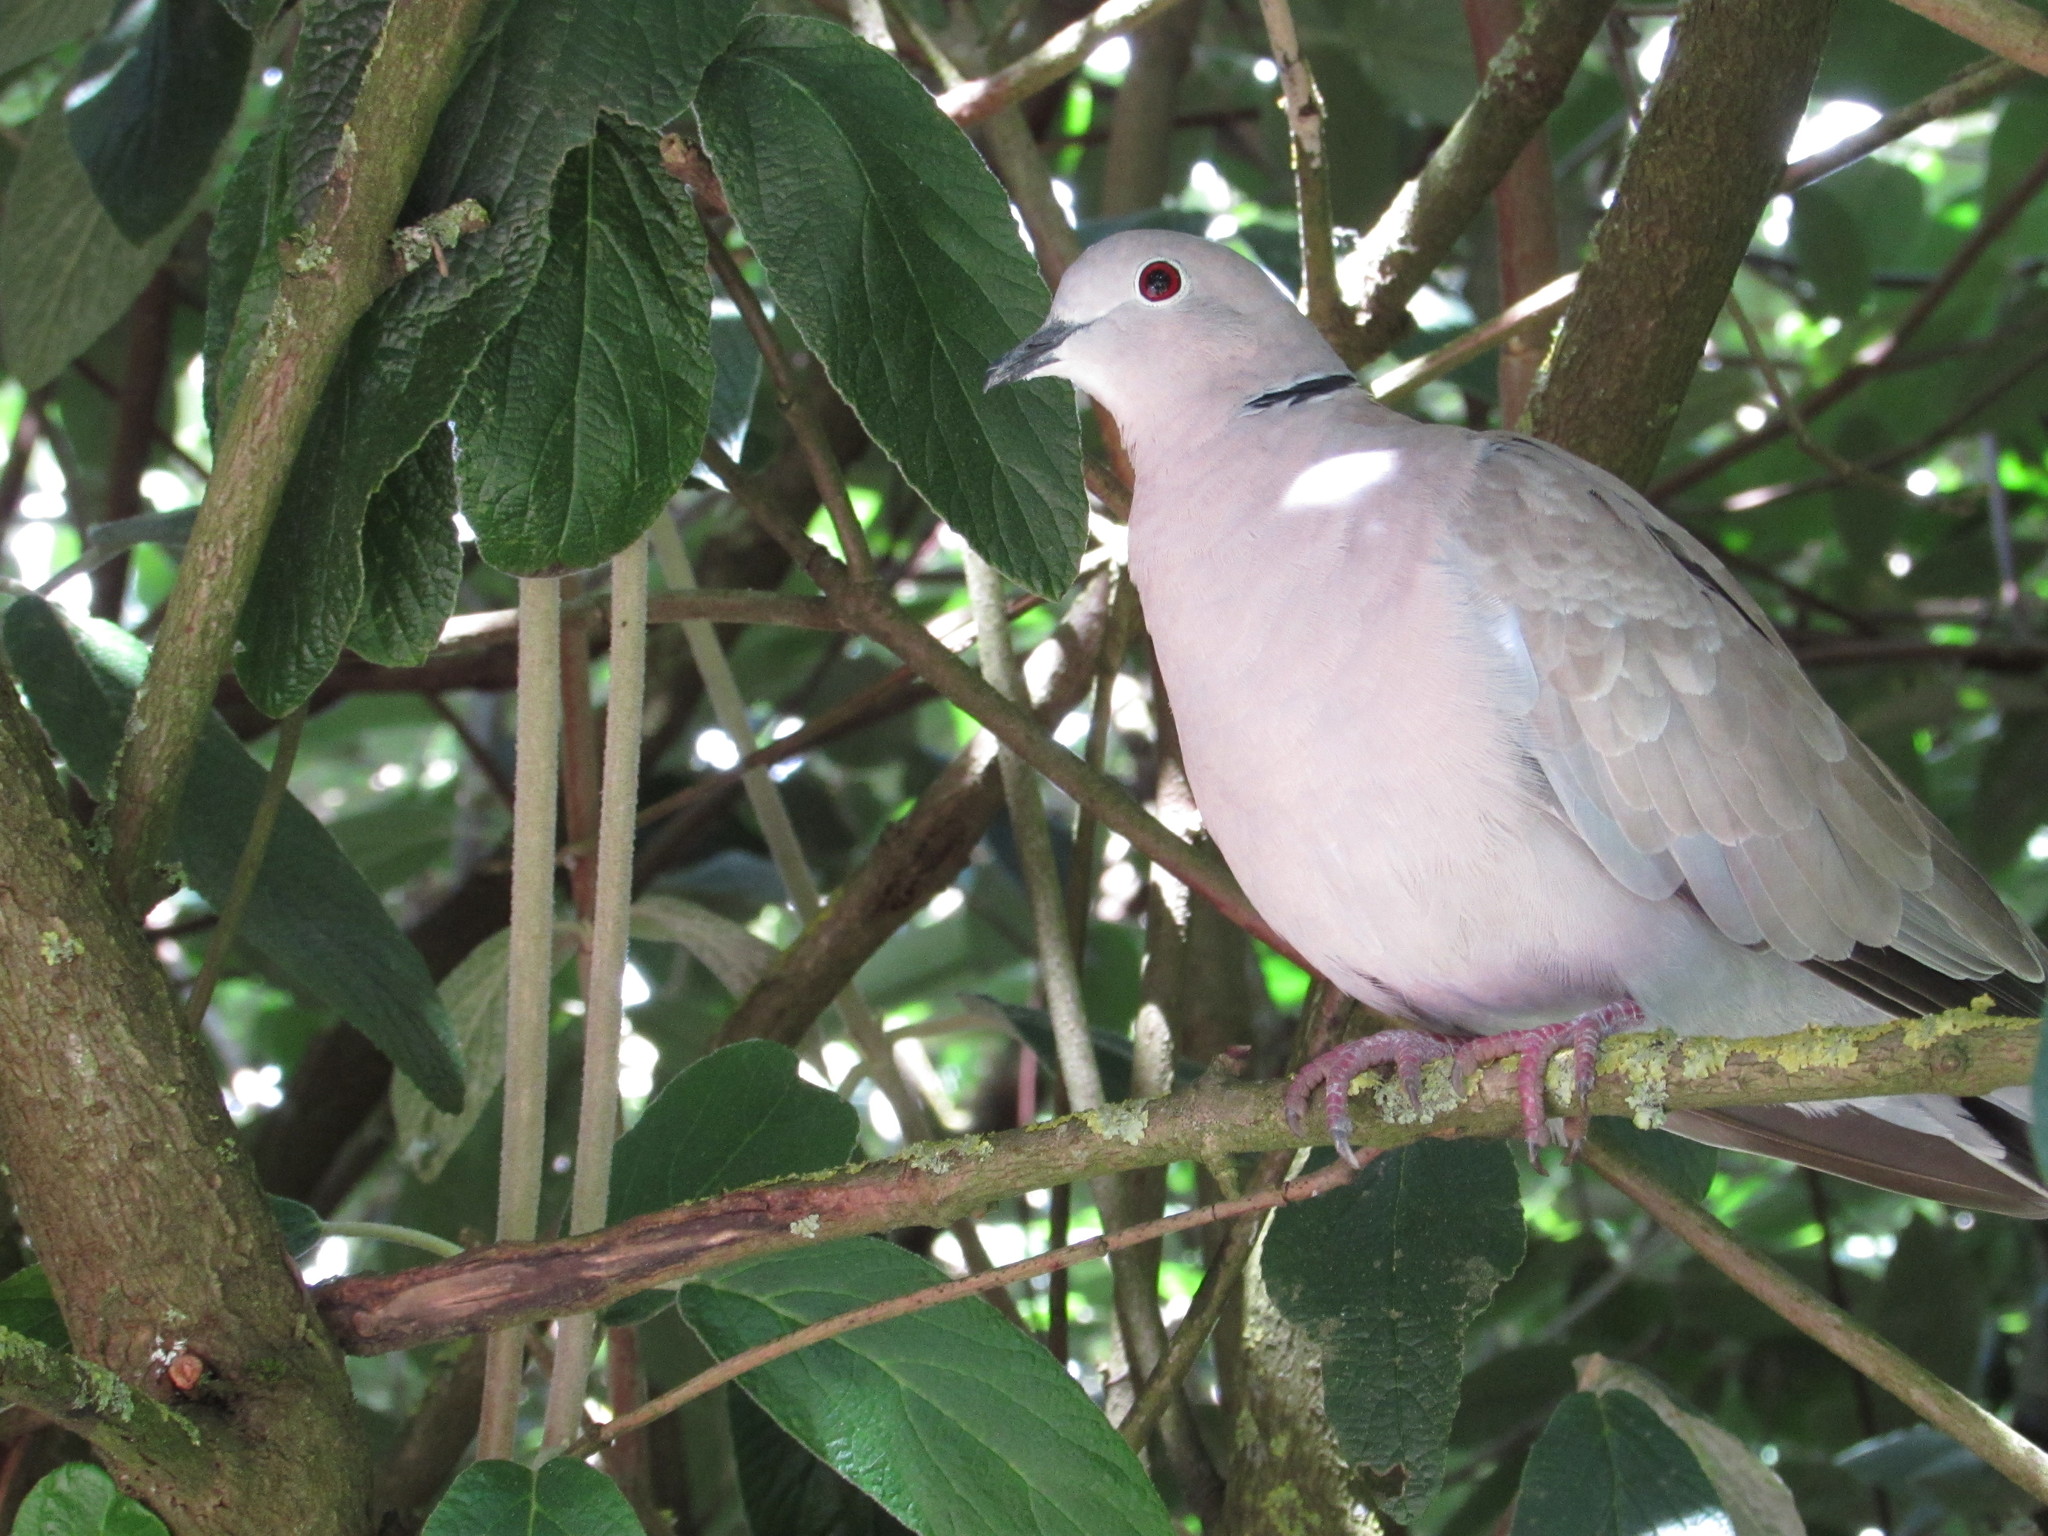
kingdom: Animalia
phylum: Chordata
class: Aves
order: Columbiformes
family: Columbidae
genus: Streptopelia
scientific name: Streptopelia decaocto
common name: Eurasian collared dove
